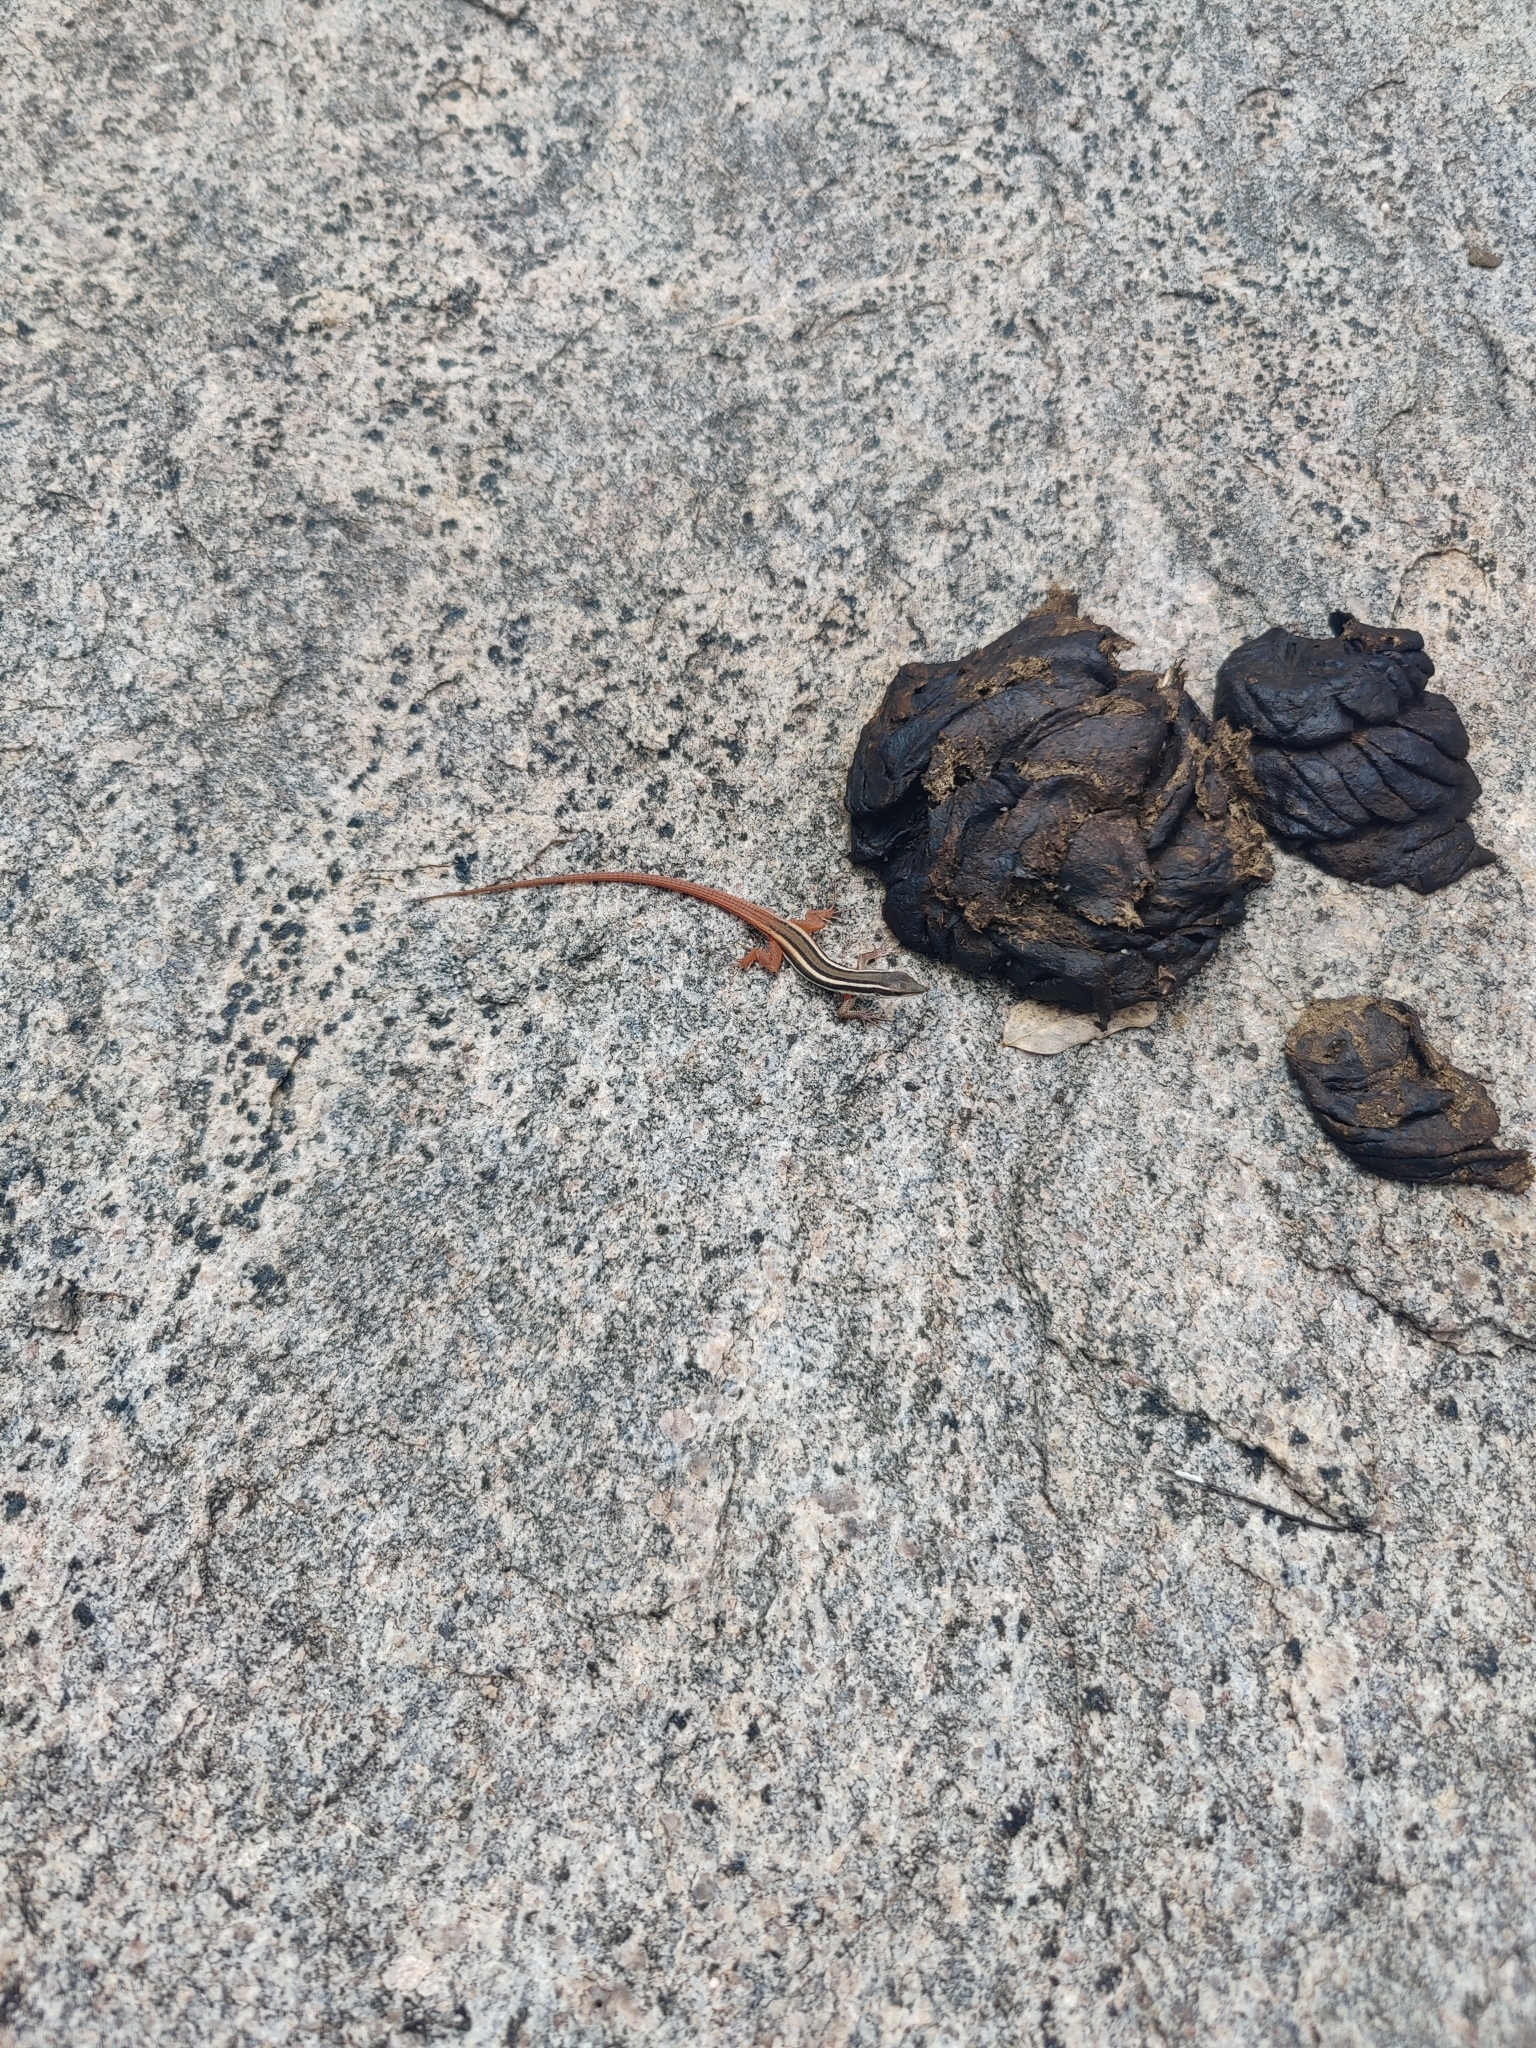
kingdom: Animalia
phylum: Chordata
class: Squamata
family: Lacertidae
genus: Ophisops
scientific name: Ophisops leschenaultii
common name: Leschenault's cabrita
